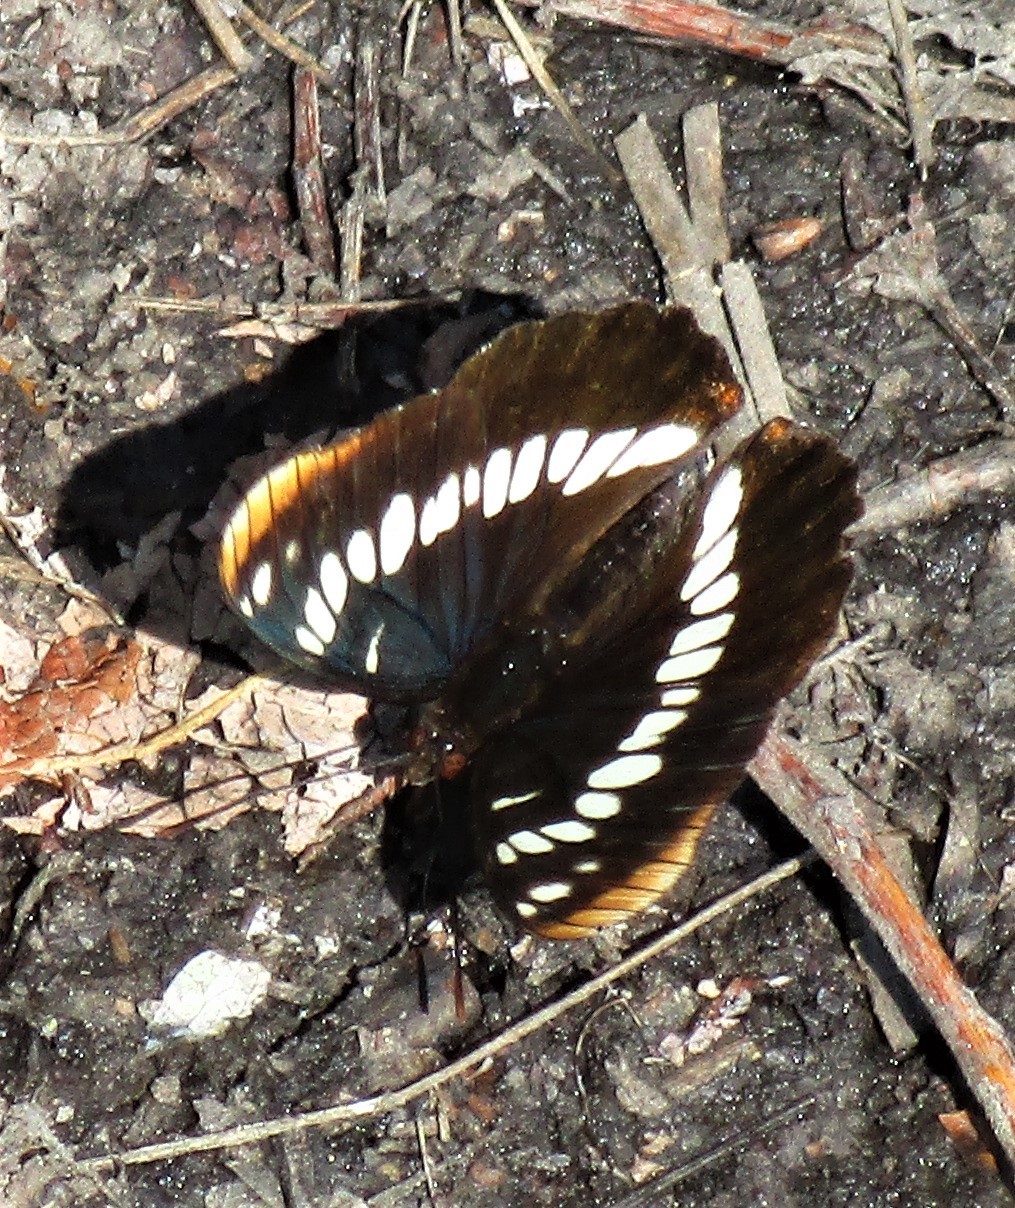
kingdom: Animalia
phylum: Arthropoda
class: Insecta
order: Lepidoptera
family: Nymphalidae
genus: Limenitis
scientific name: Limenitis lorquini
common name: Lorquin's admiral
